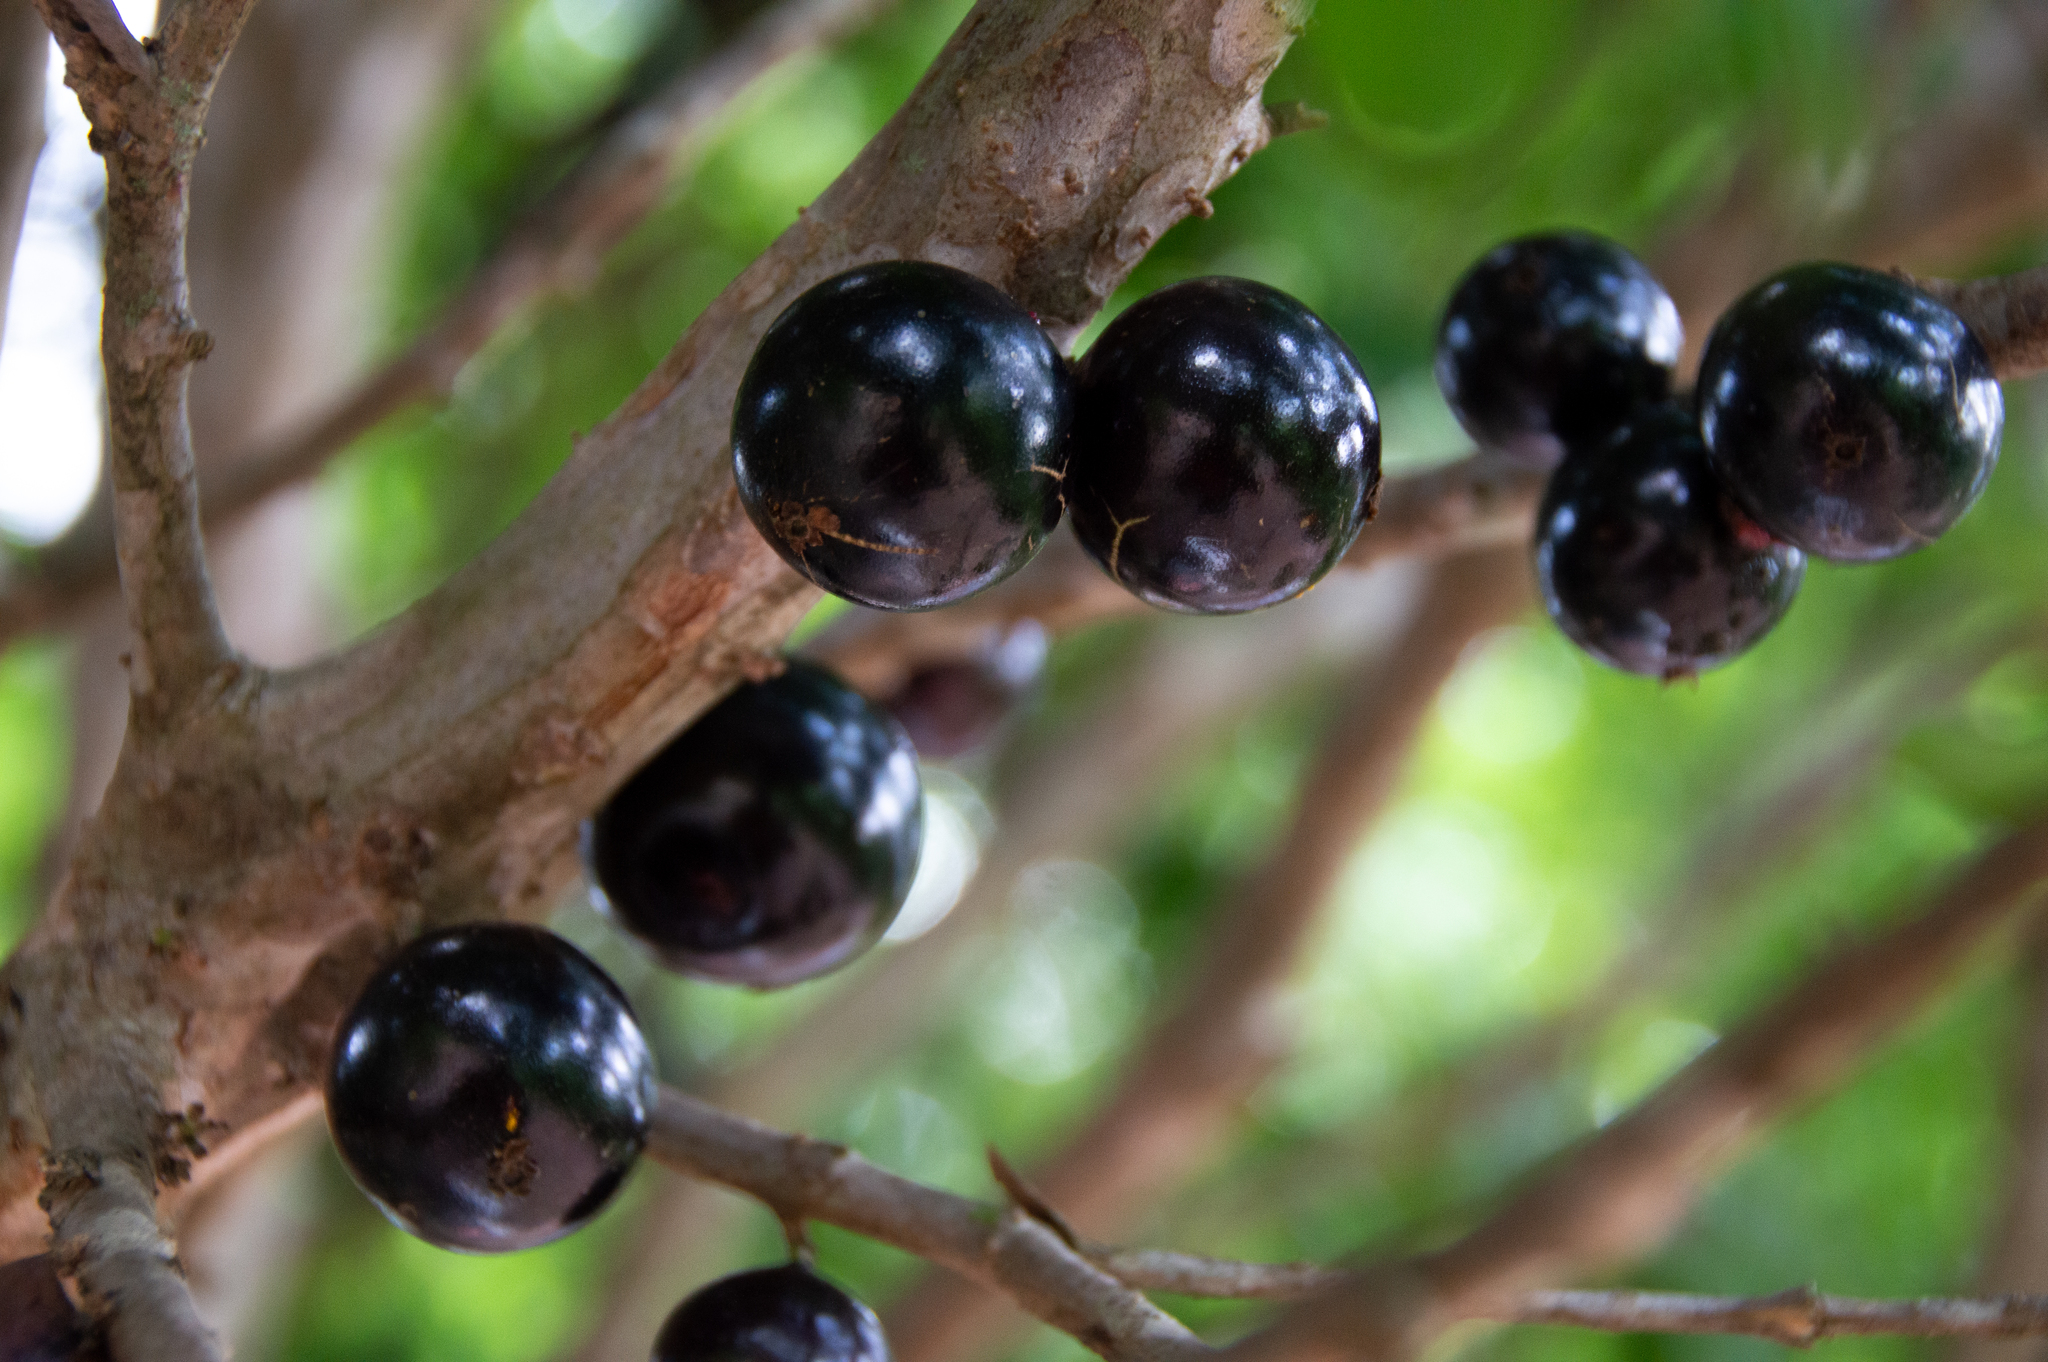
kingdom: Plantae
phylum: Tracheophyta
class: Magnoliopsida
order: Myrtales
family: Myrtaceae
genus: Plinia
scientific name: Plinia cauliflora
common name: Brazilian grapetree
